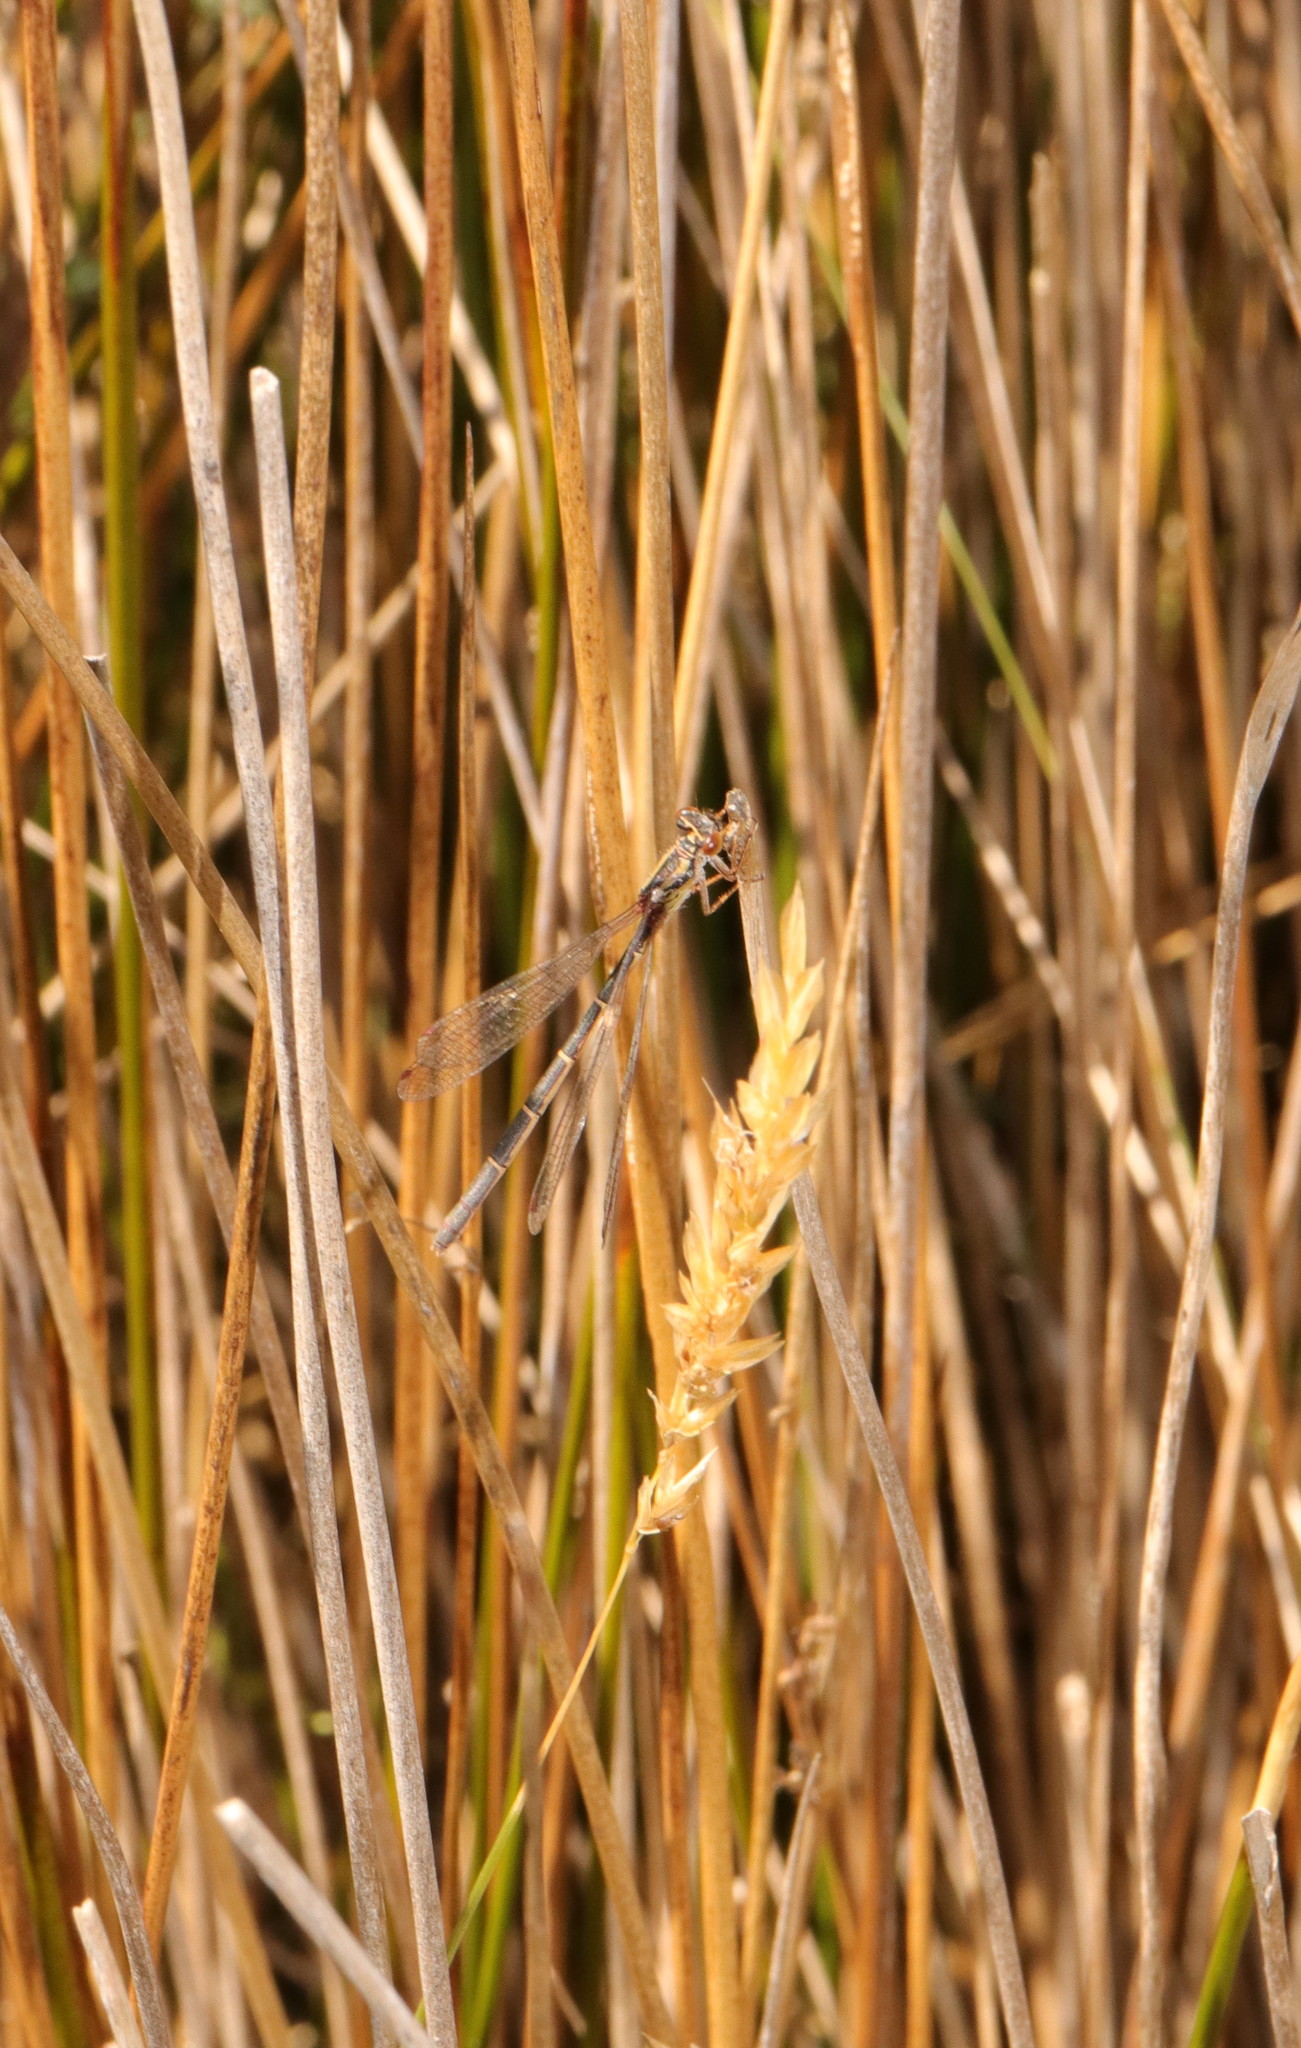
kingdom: Animalia
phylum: Arthropoda
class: Insecta
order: Odonata
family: Coenagrionidae
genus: Xanthocnemis
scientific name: Xanthocnemis zealandica
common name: Common redcoat damselfly
